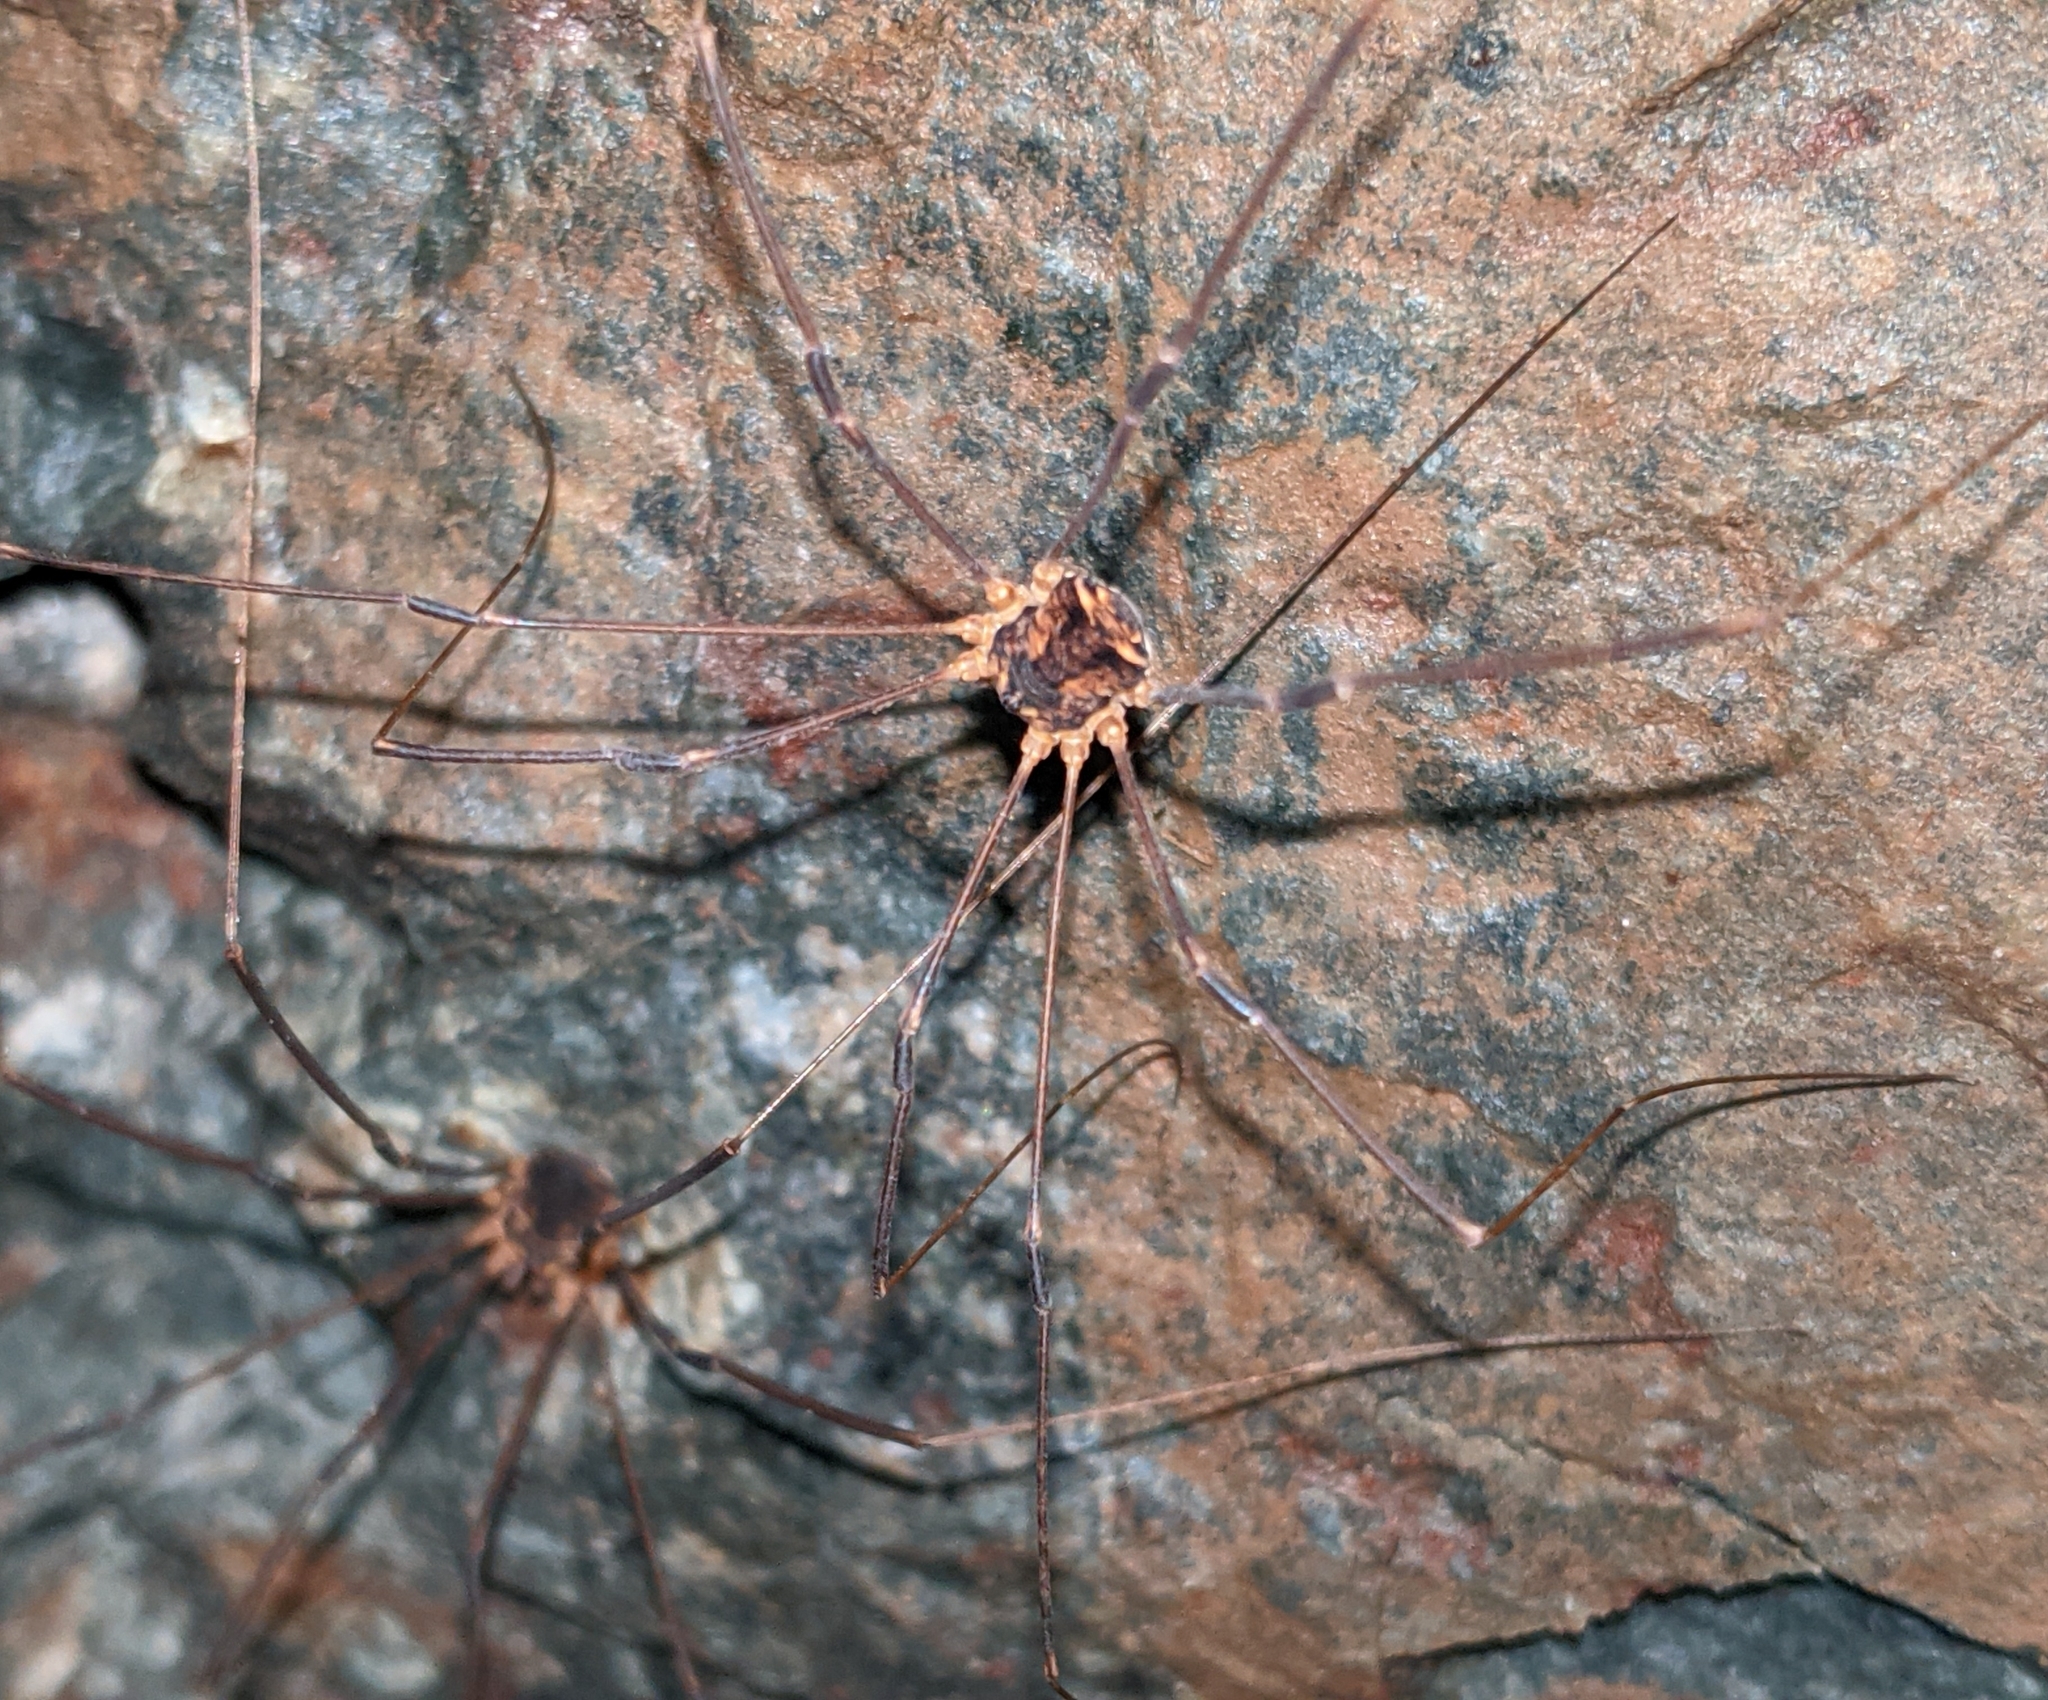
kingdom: Animalia
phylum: Arthropoda
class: Arachnida
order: Opiliones
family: Sclerosomatidae
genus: Nelima
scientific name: Nelima paessleri
